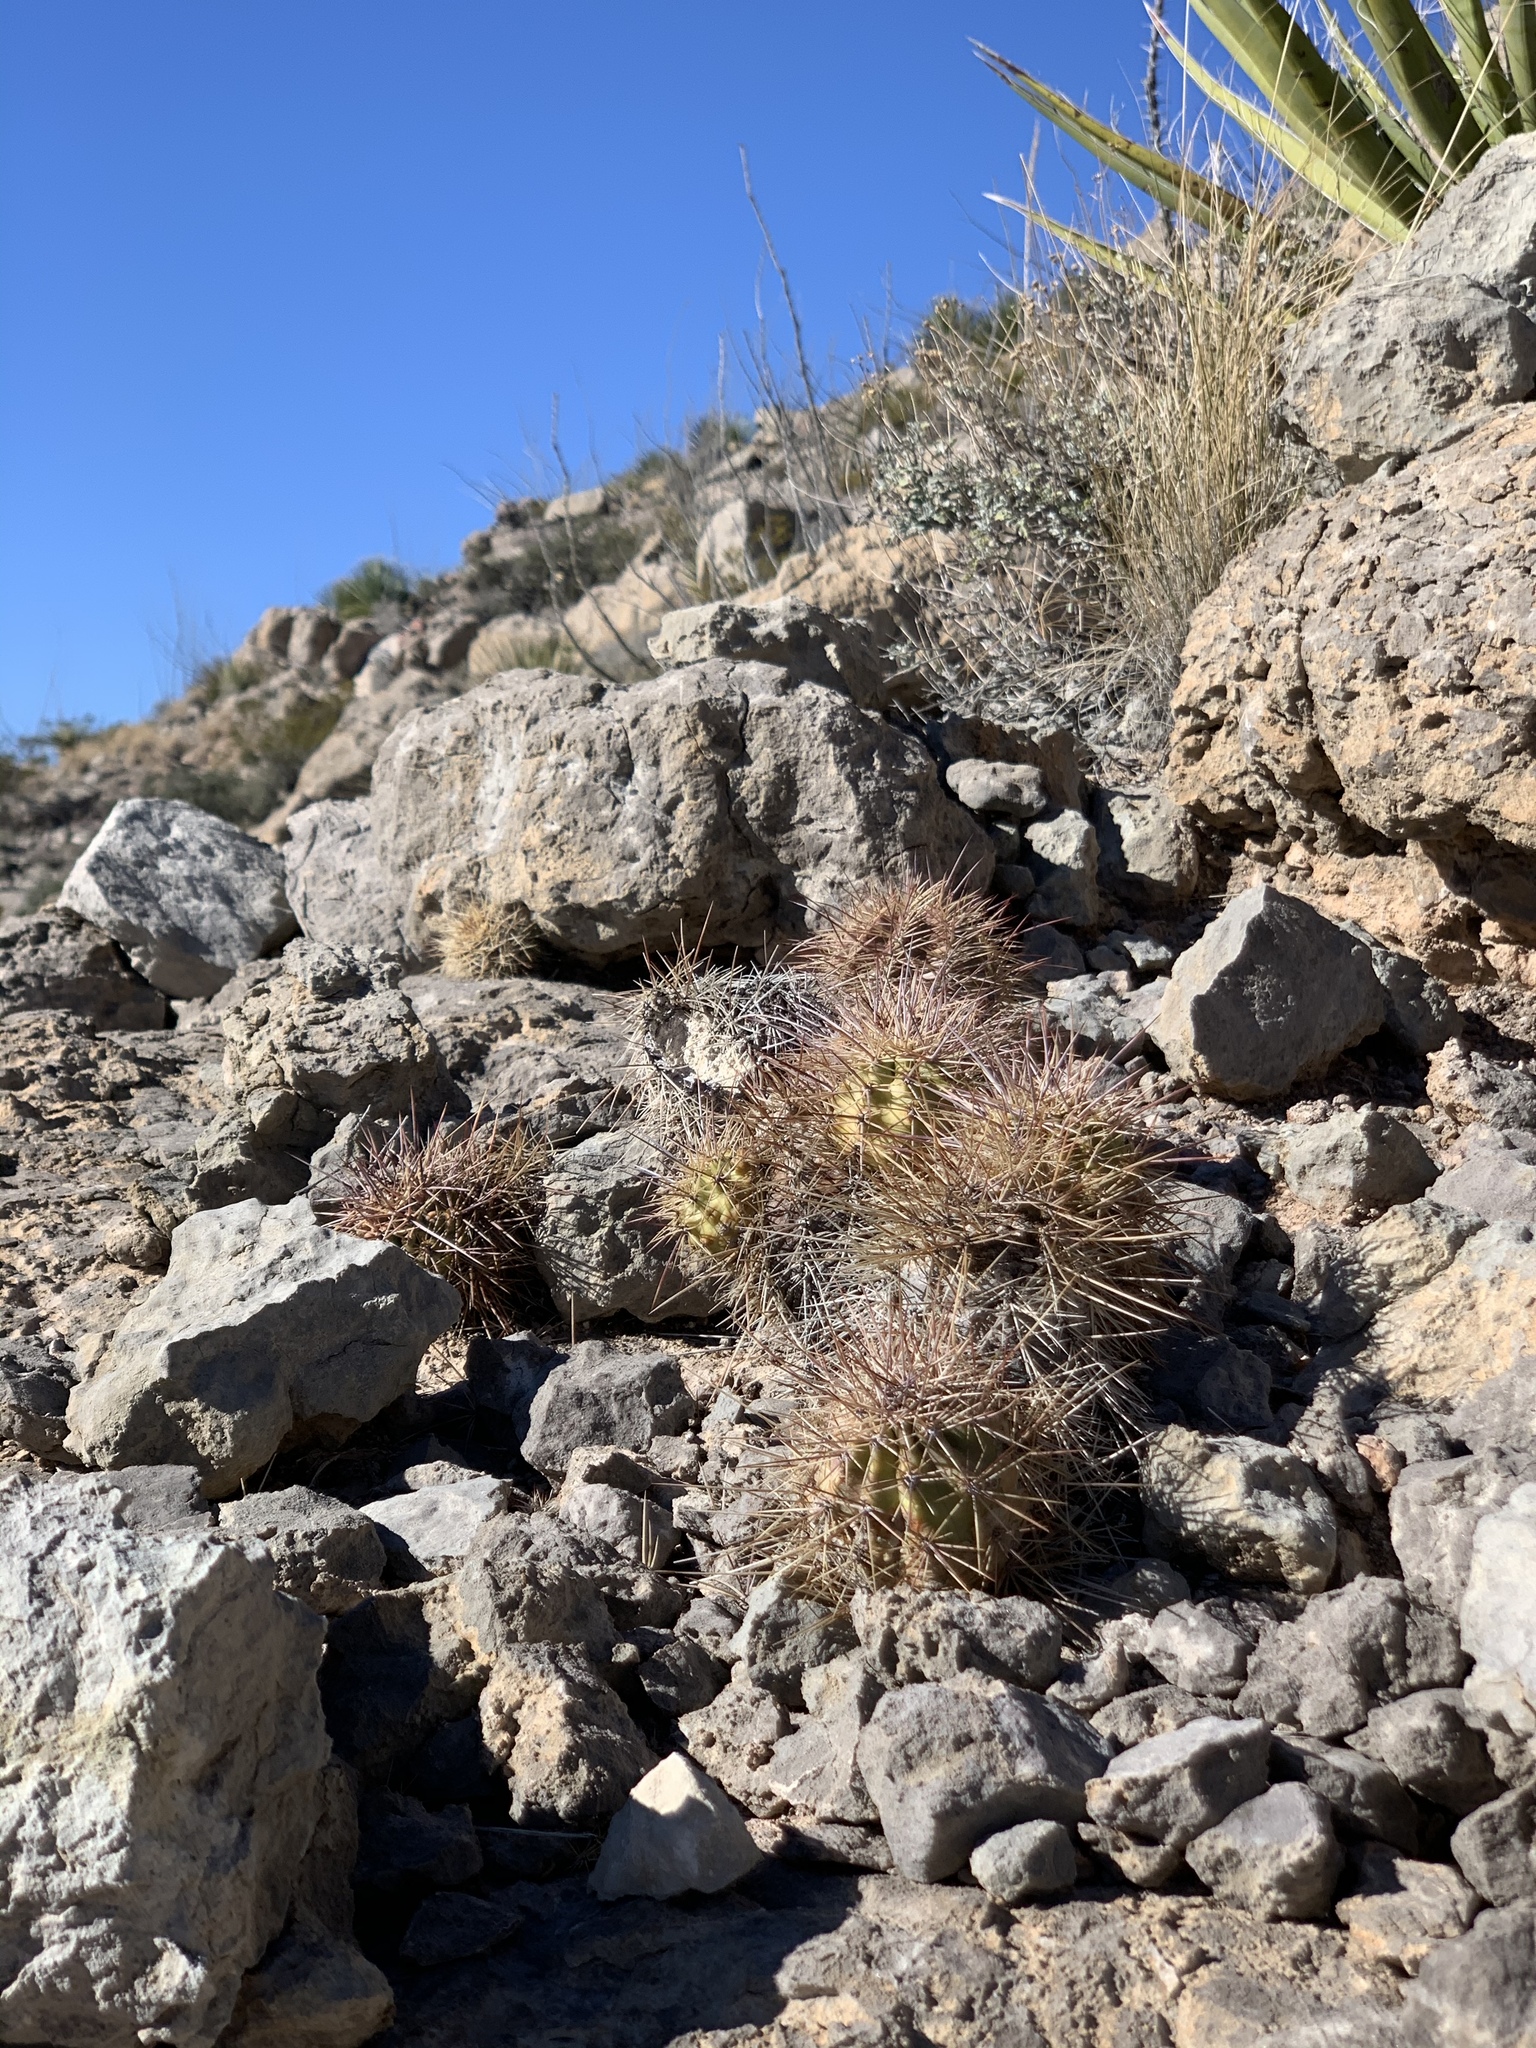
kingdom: Plantae
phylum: Tracheophyta
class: Magnoliopsida
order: Caryophyllales
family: Cactaceae
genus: Echinocereus
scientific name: Echinocereus coccineus
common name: Scarlet hedgehog cactus
